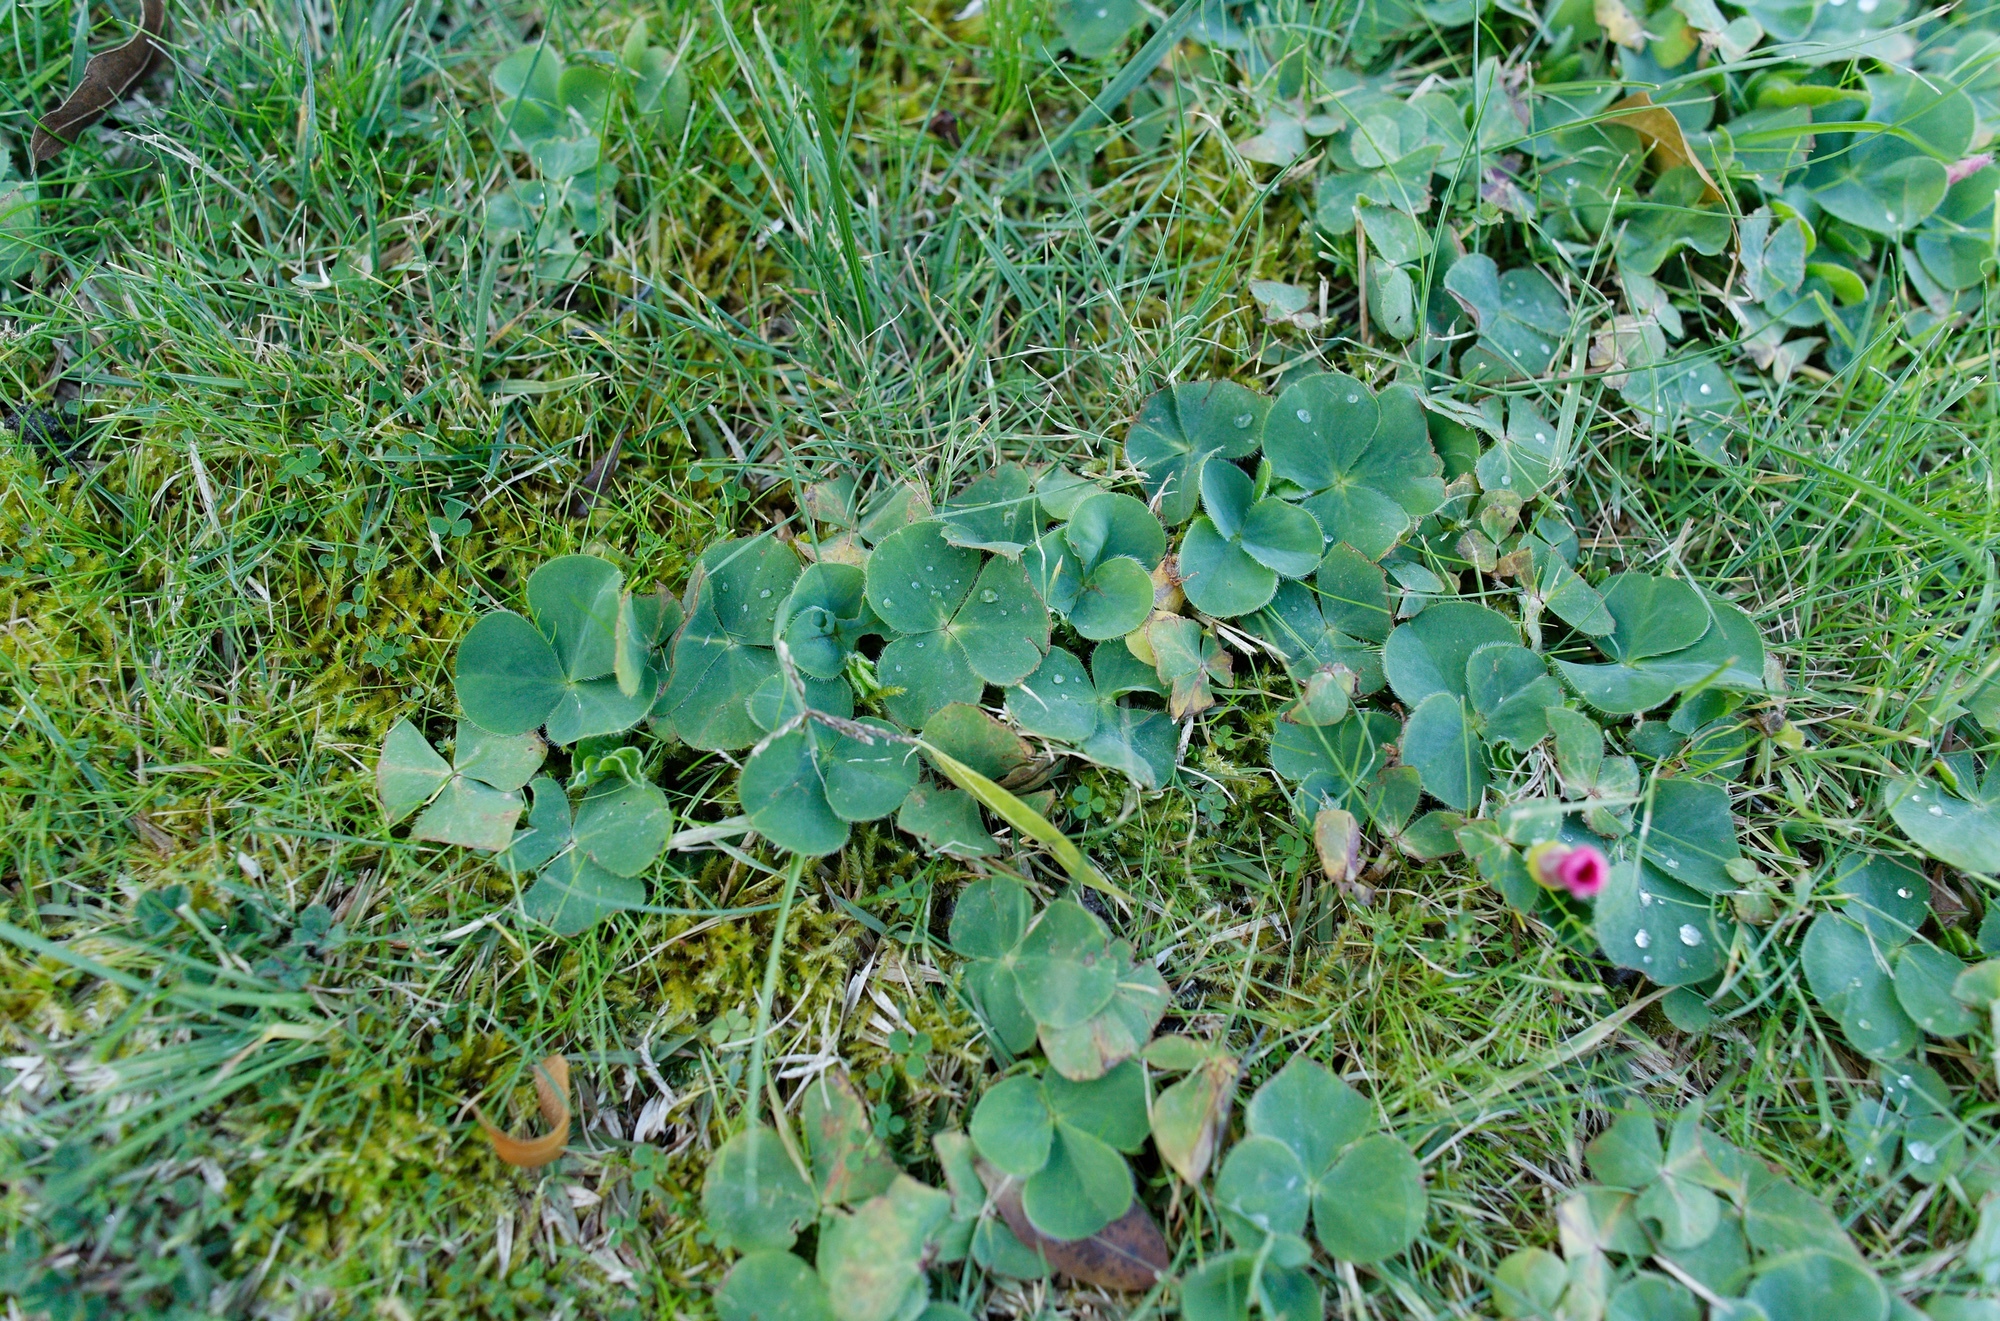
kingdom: Plantae
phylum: Tracheophyta
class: Magnoliopsida
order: Oxalidales
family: Oxalidaceae
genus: Oxalis
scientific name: Oxalis purpurea
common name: Purple woodsorrel
